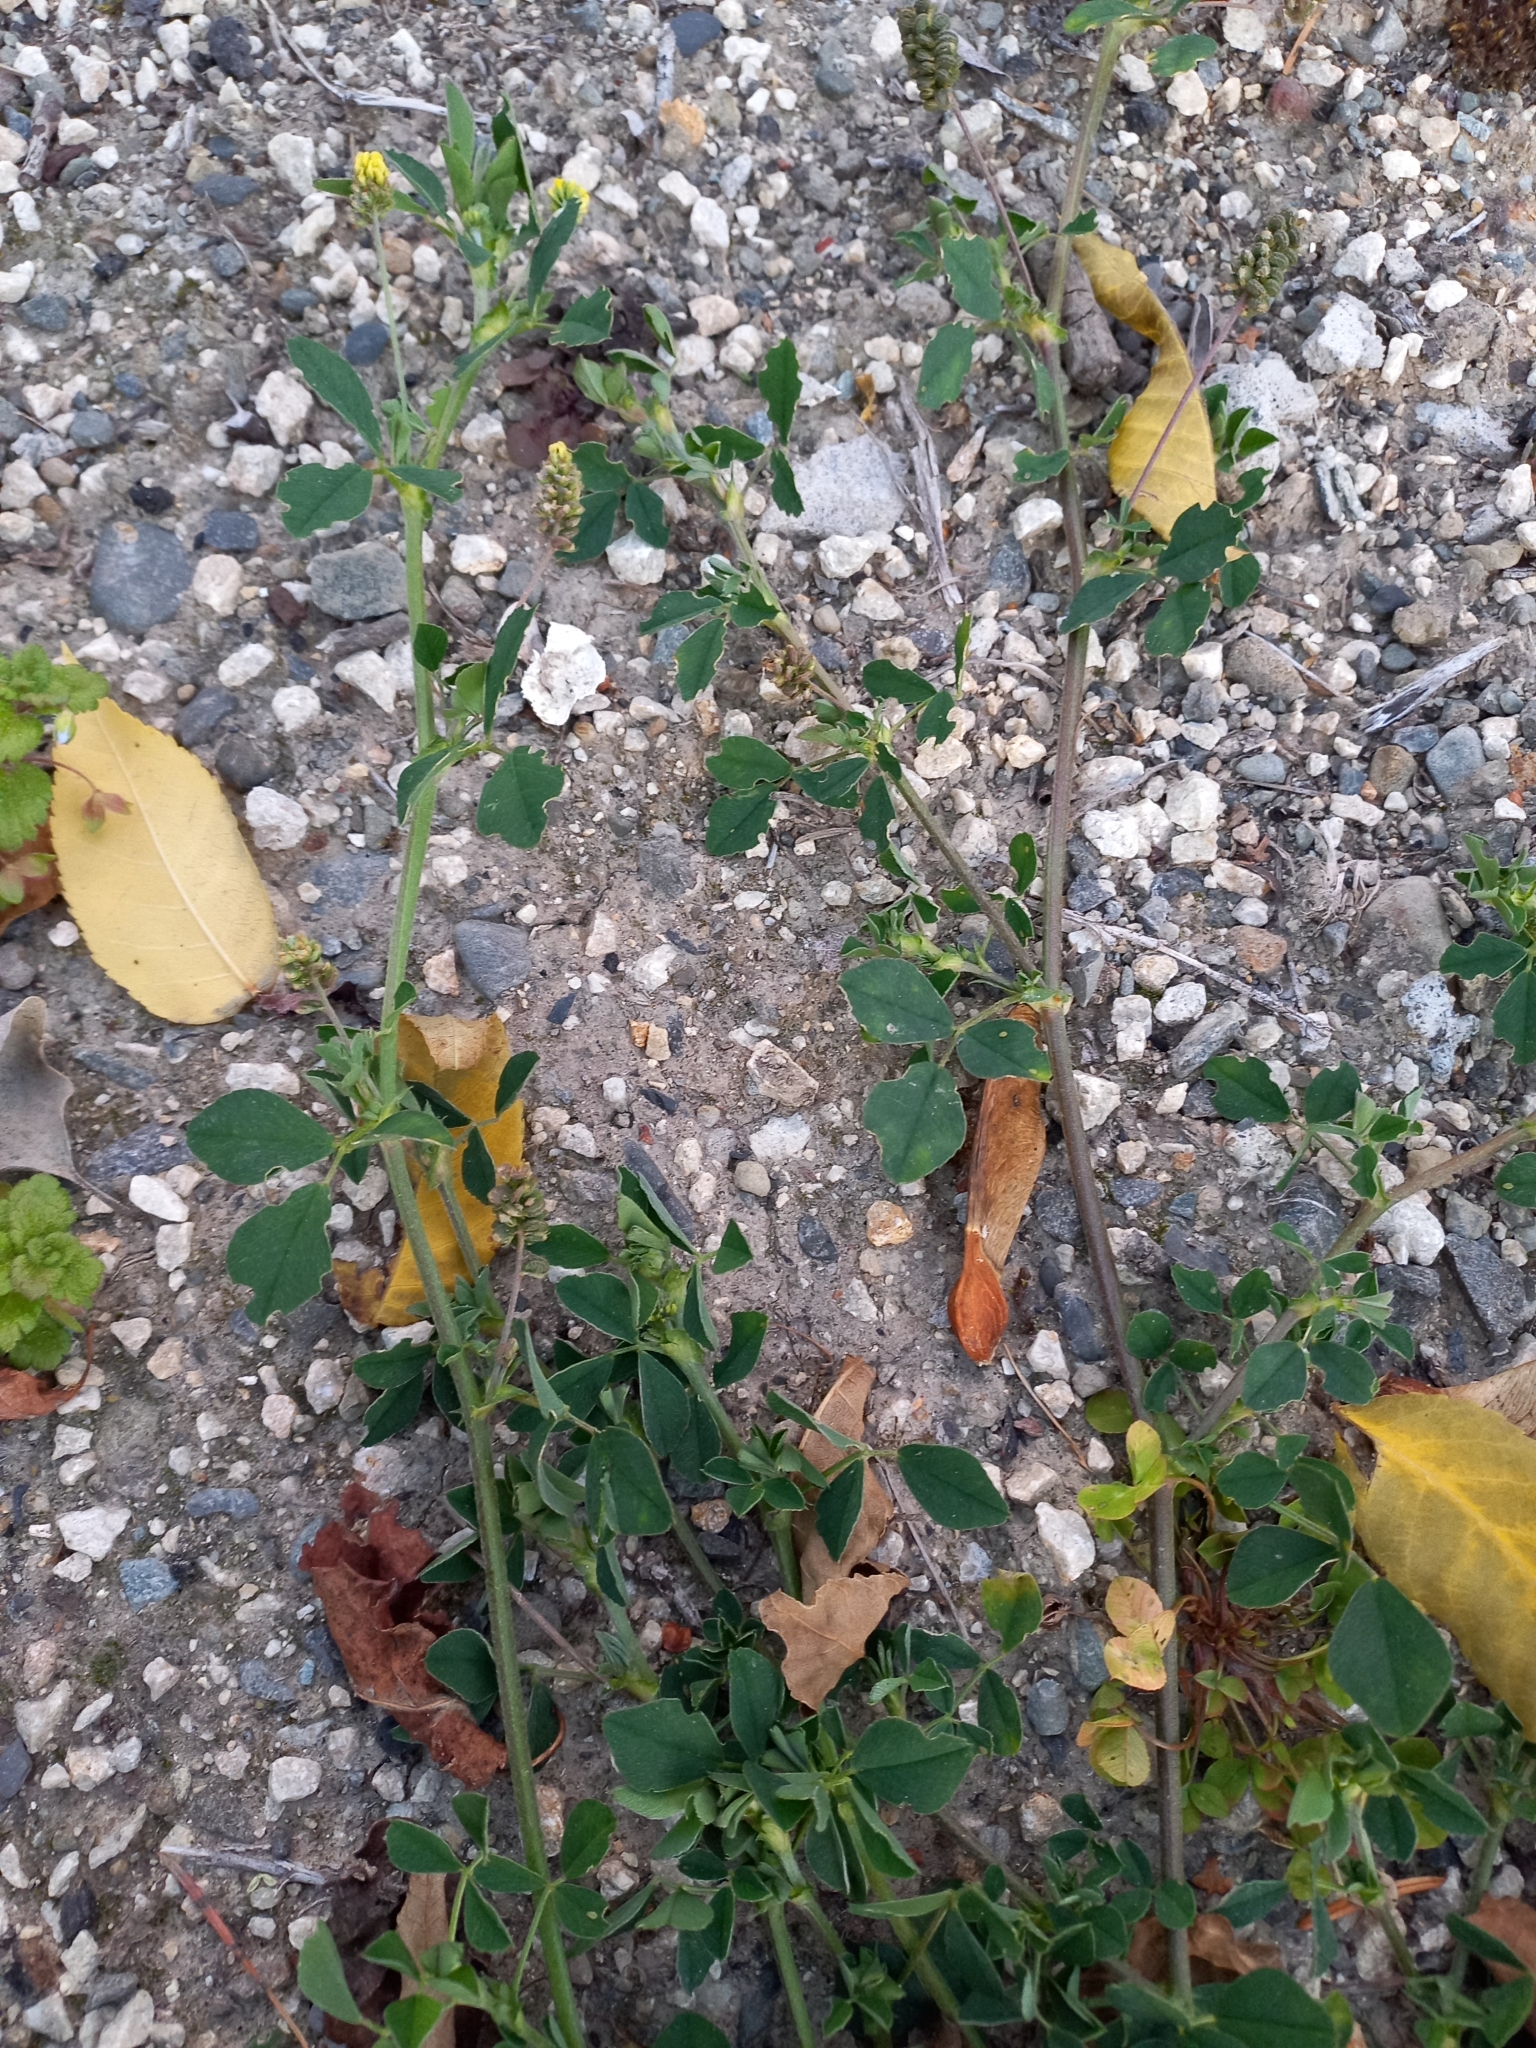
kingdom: Plantae
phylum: Tracheophyta
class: Magnoliopsida
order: Fabales
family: Fabaceae
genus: Medicago
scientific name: Medicago lupulina
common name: Black medick
